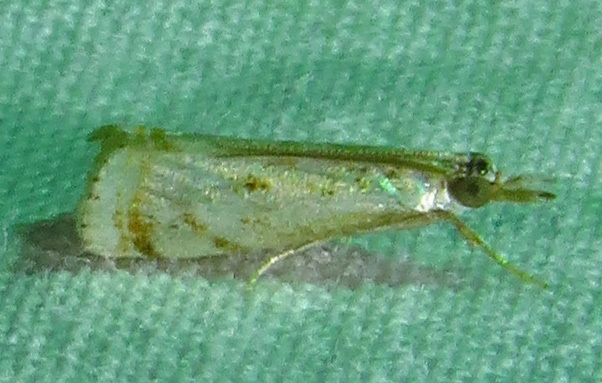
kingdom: Animalia
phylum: Arthropoda
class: Insecta
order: Lepidoptera
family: Crambidae
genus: Microcrambus
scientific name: Microcrambus elegans
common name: Elegant grass-veneer
